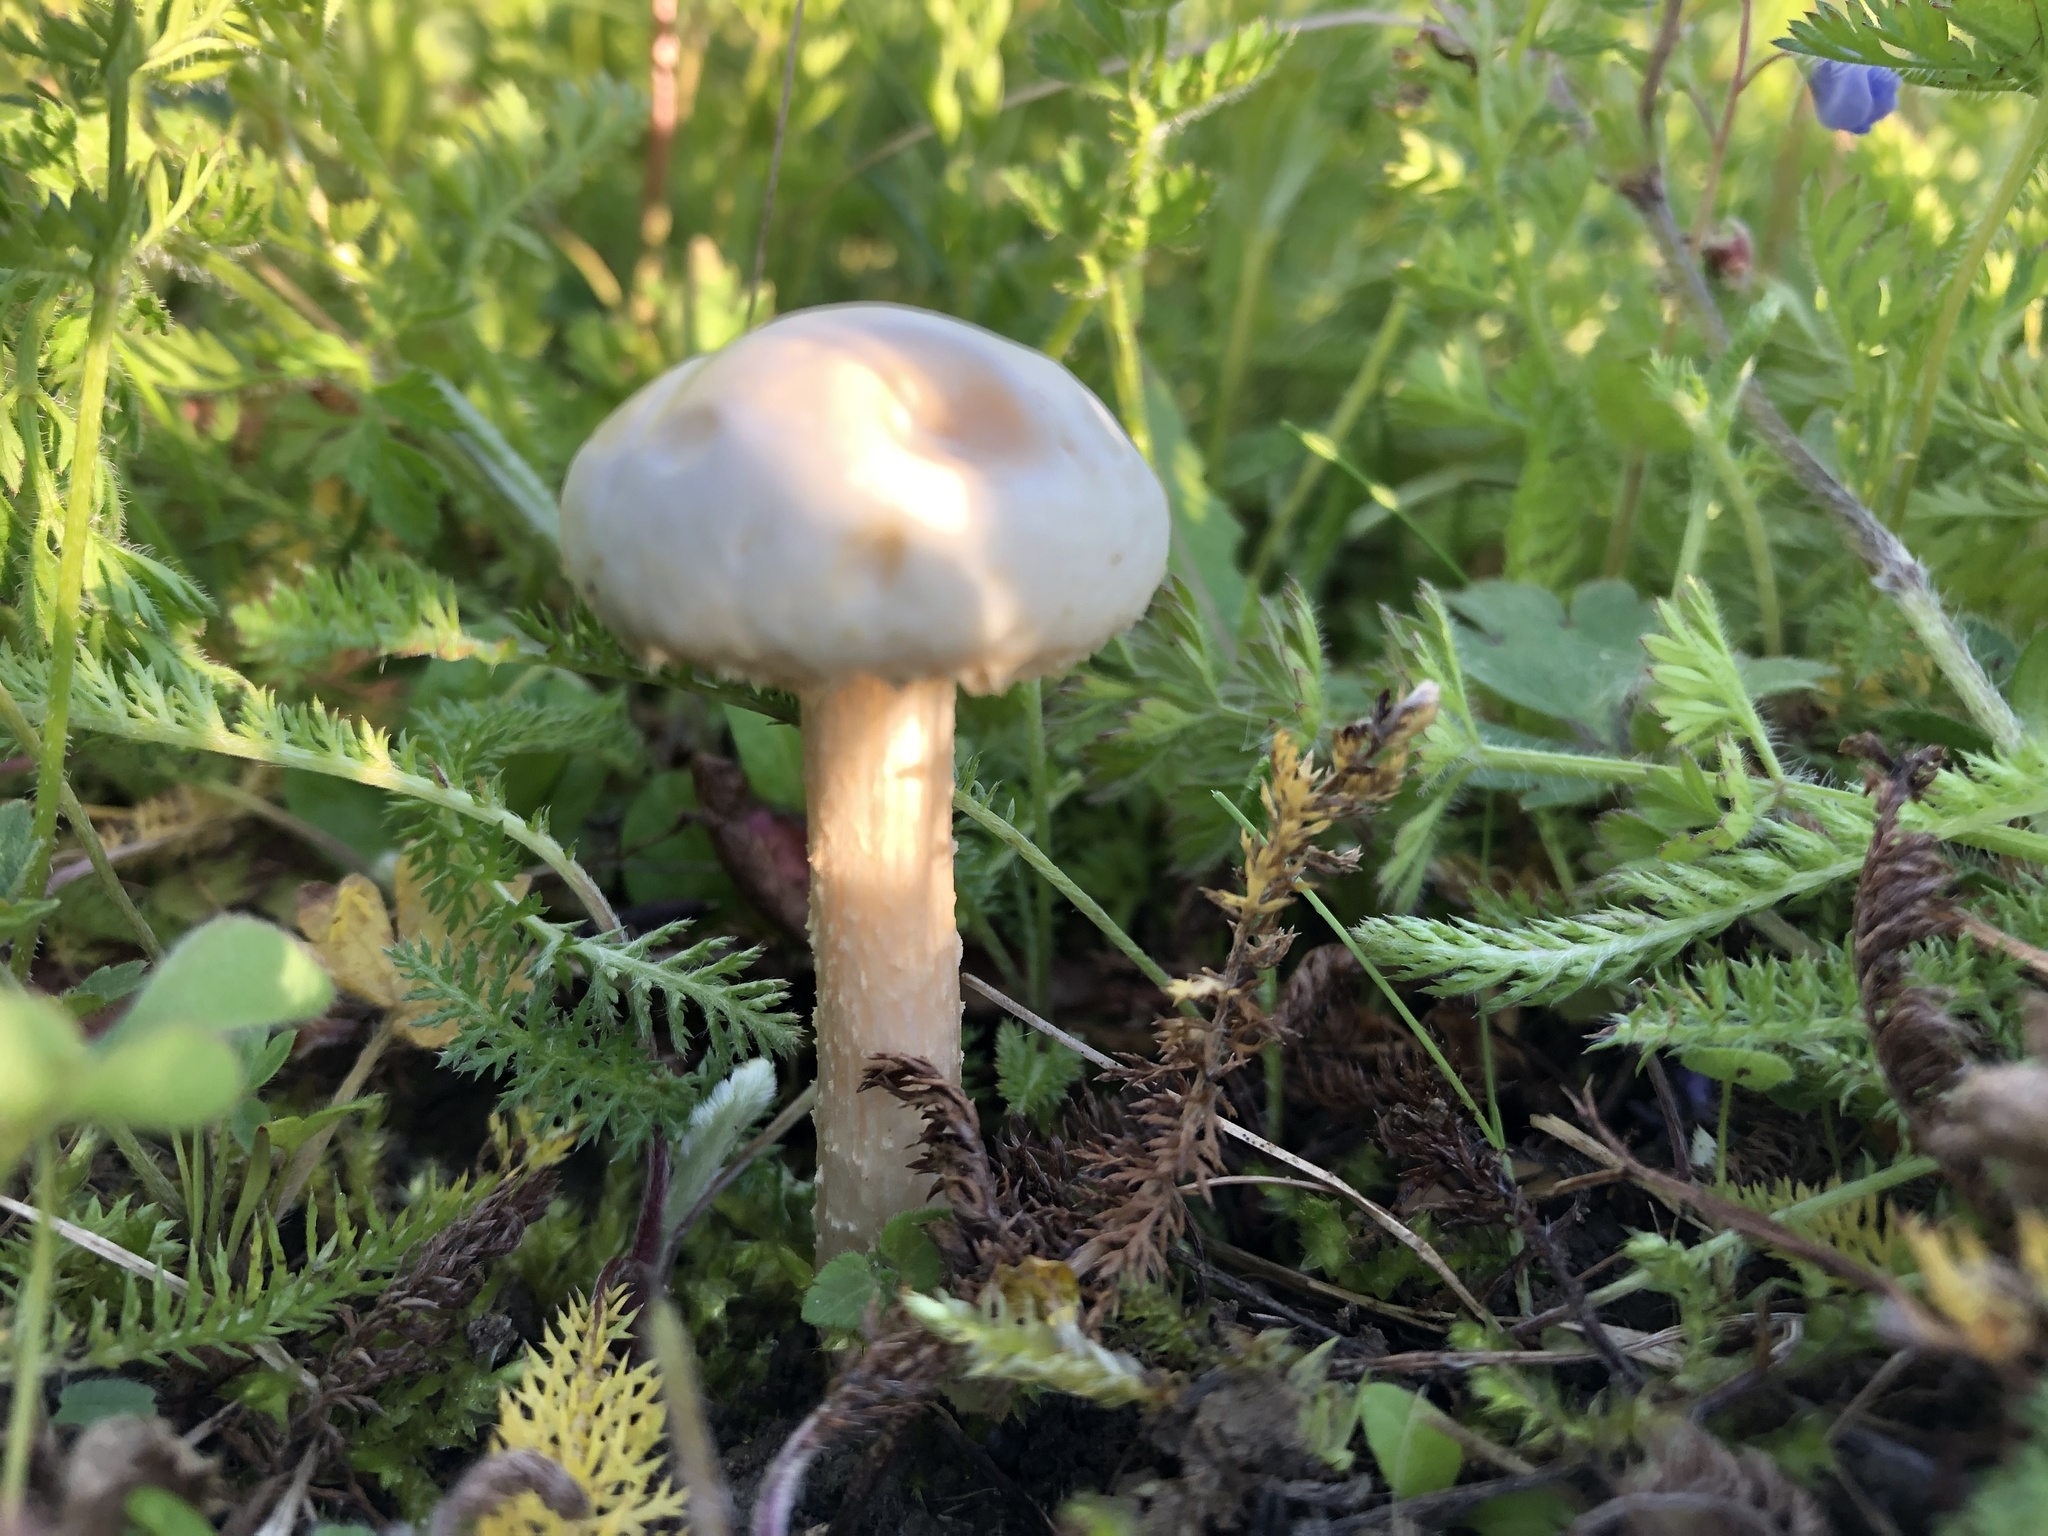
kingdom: Fungi
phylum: Basidiomycota
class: Agaricomycetes
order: Agaricales
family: Strophariaceae
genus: Agrocybe
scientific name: Agrocybe molesta
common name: Bearded fieldcap
